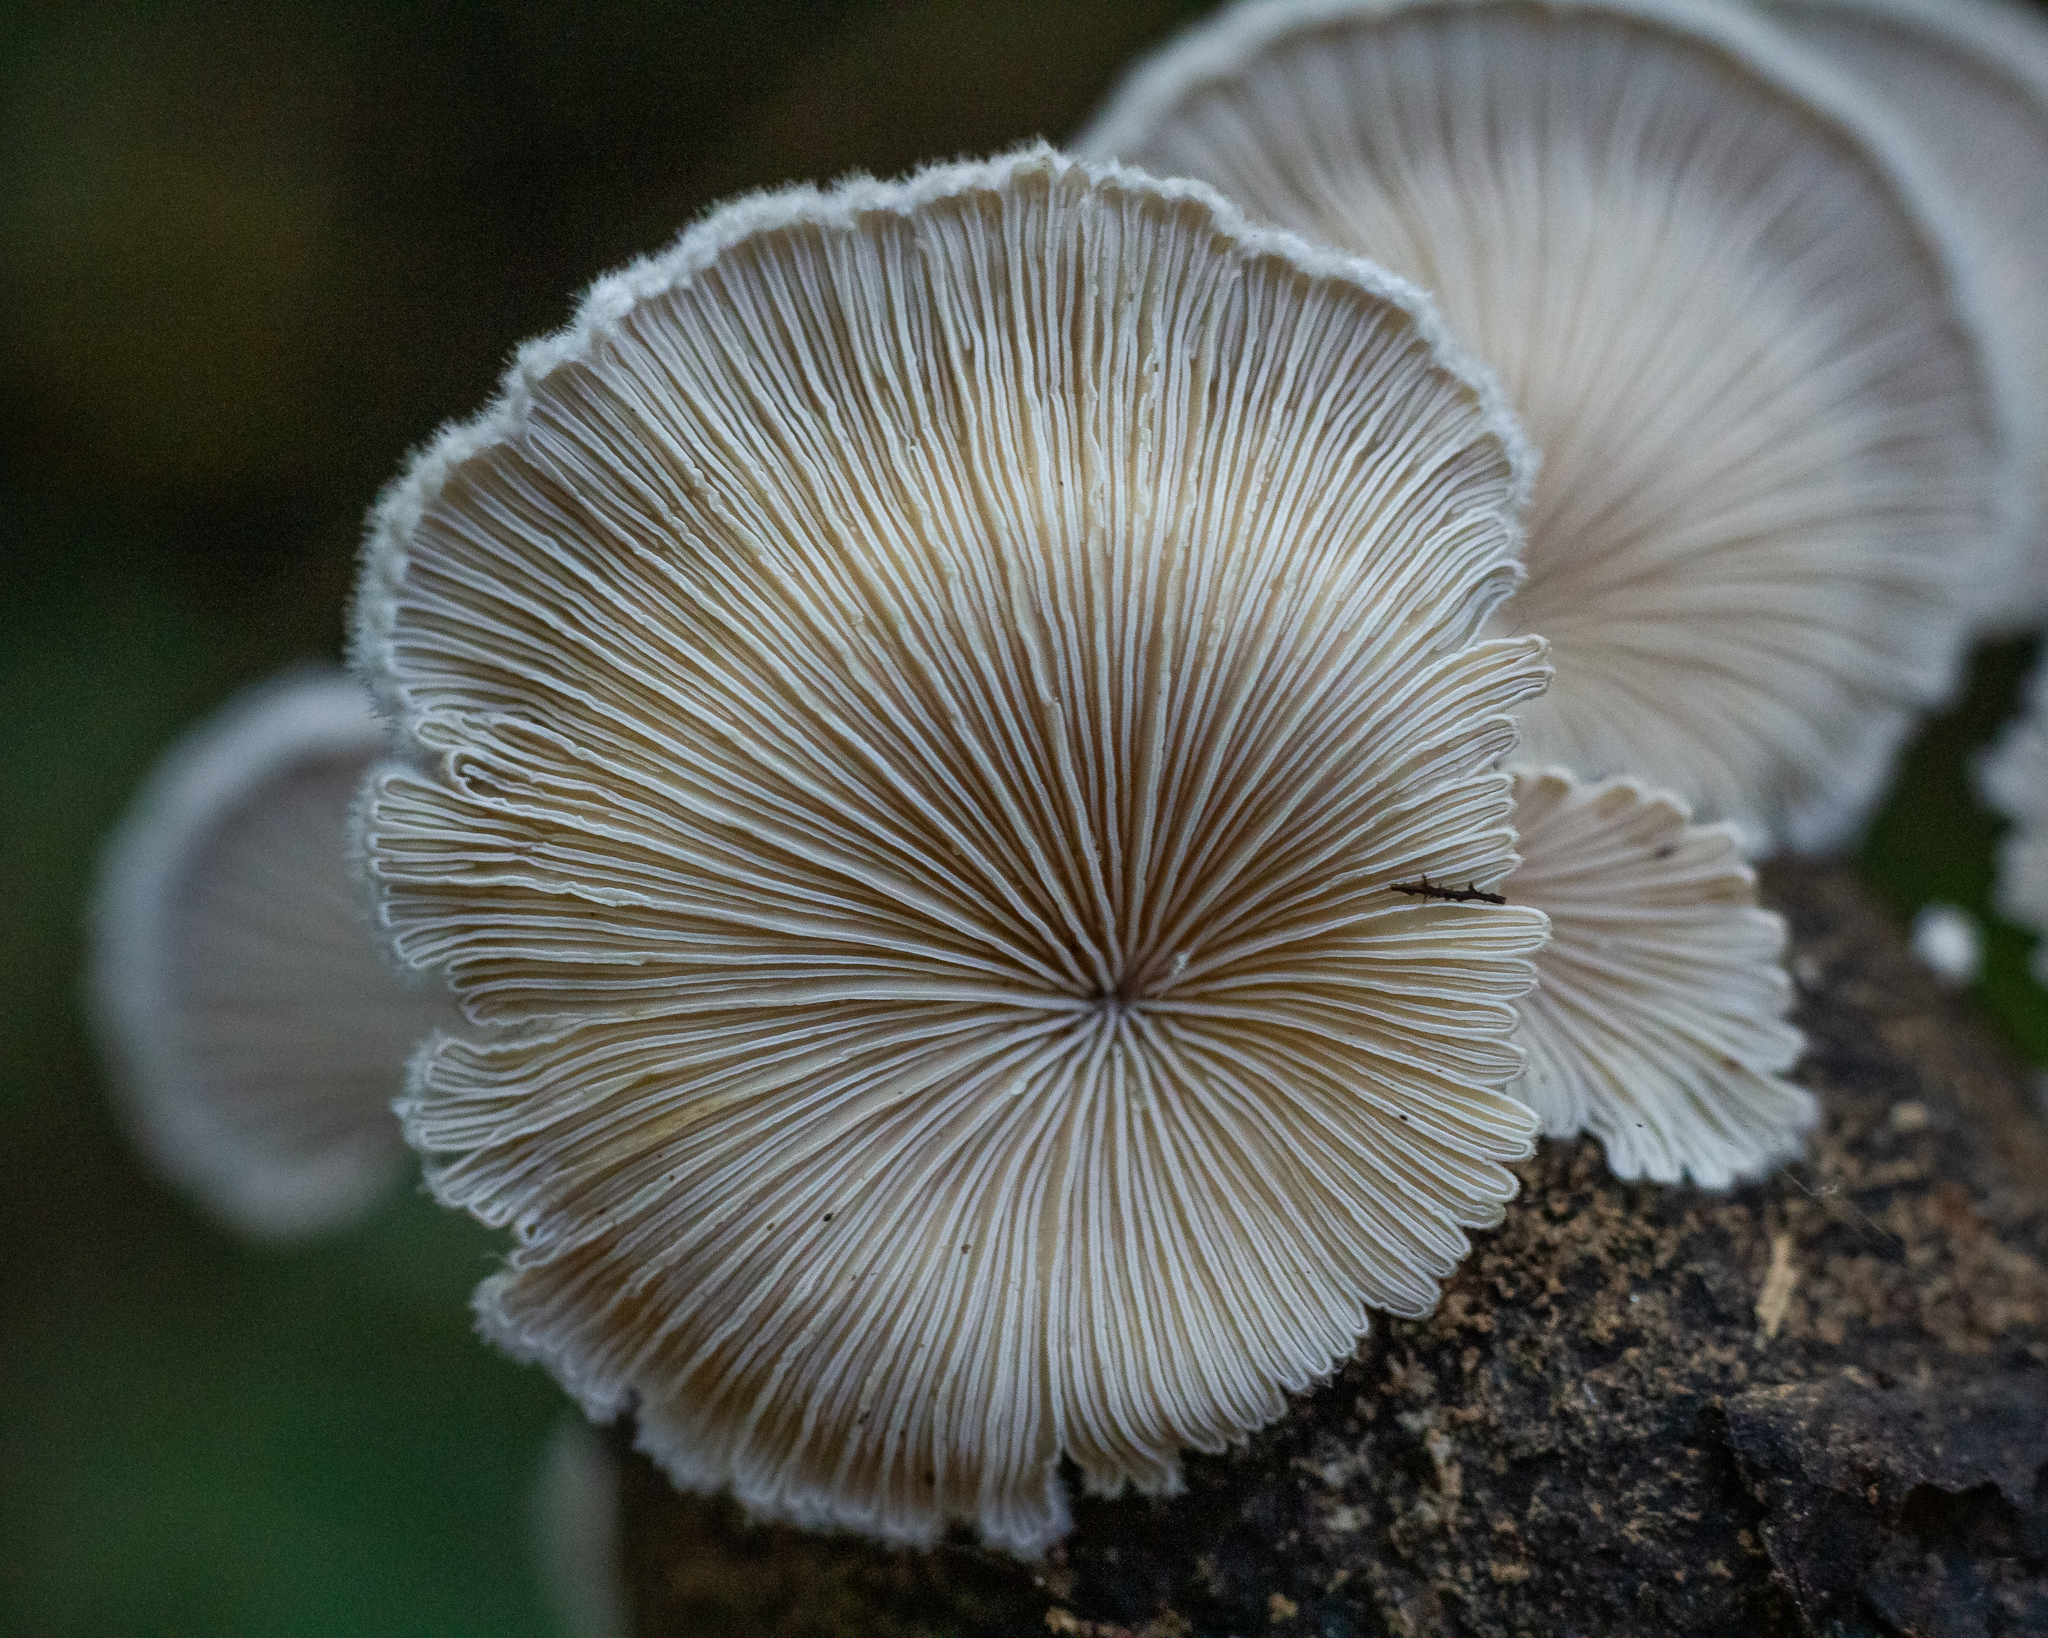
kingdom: Fungi
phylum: Basidiomycota
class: Agaricomycetes
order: Agaricales
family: Schizophyllaceae
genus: Schizophyllum
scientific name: Schizophyllum commune
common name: Common porecrust
